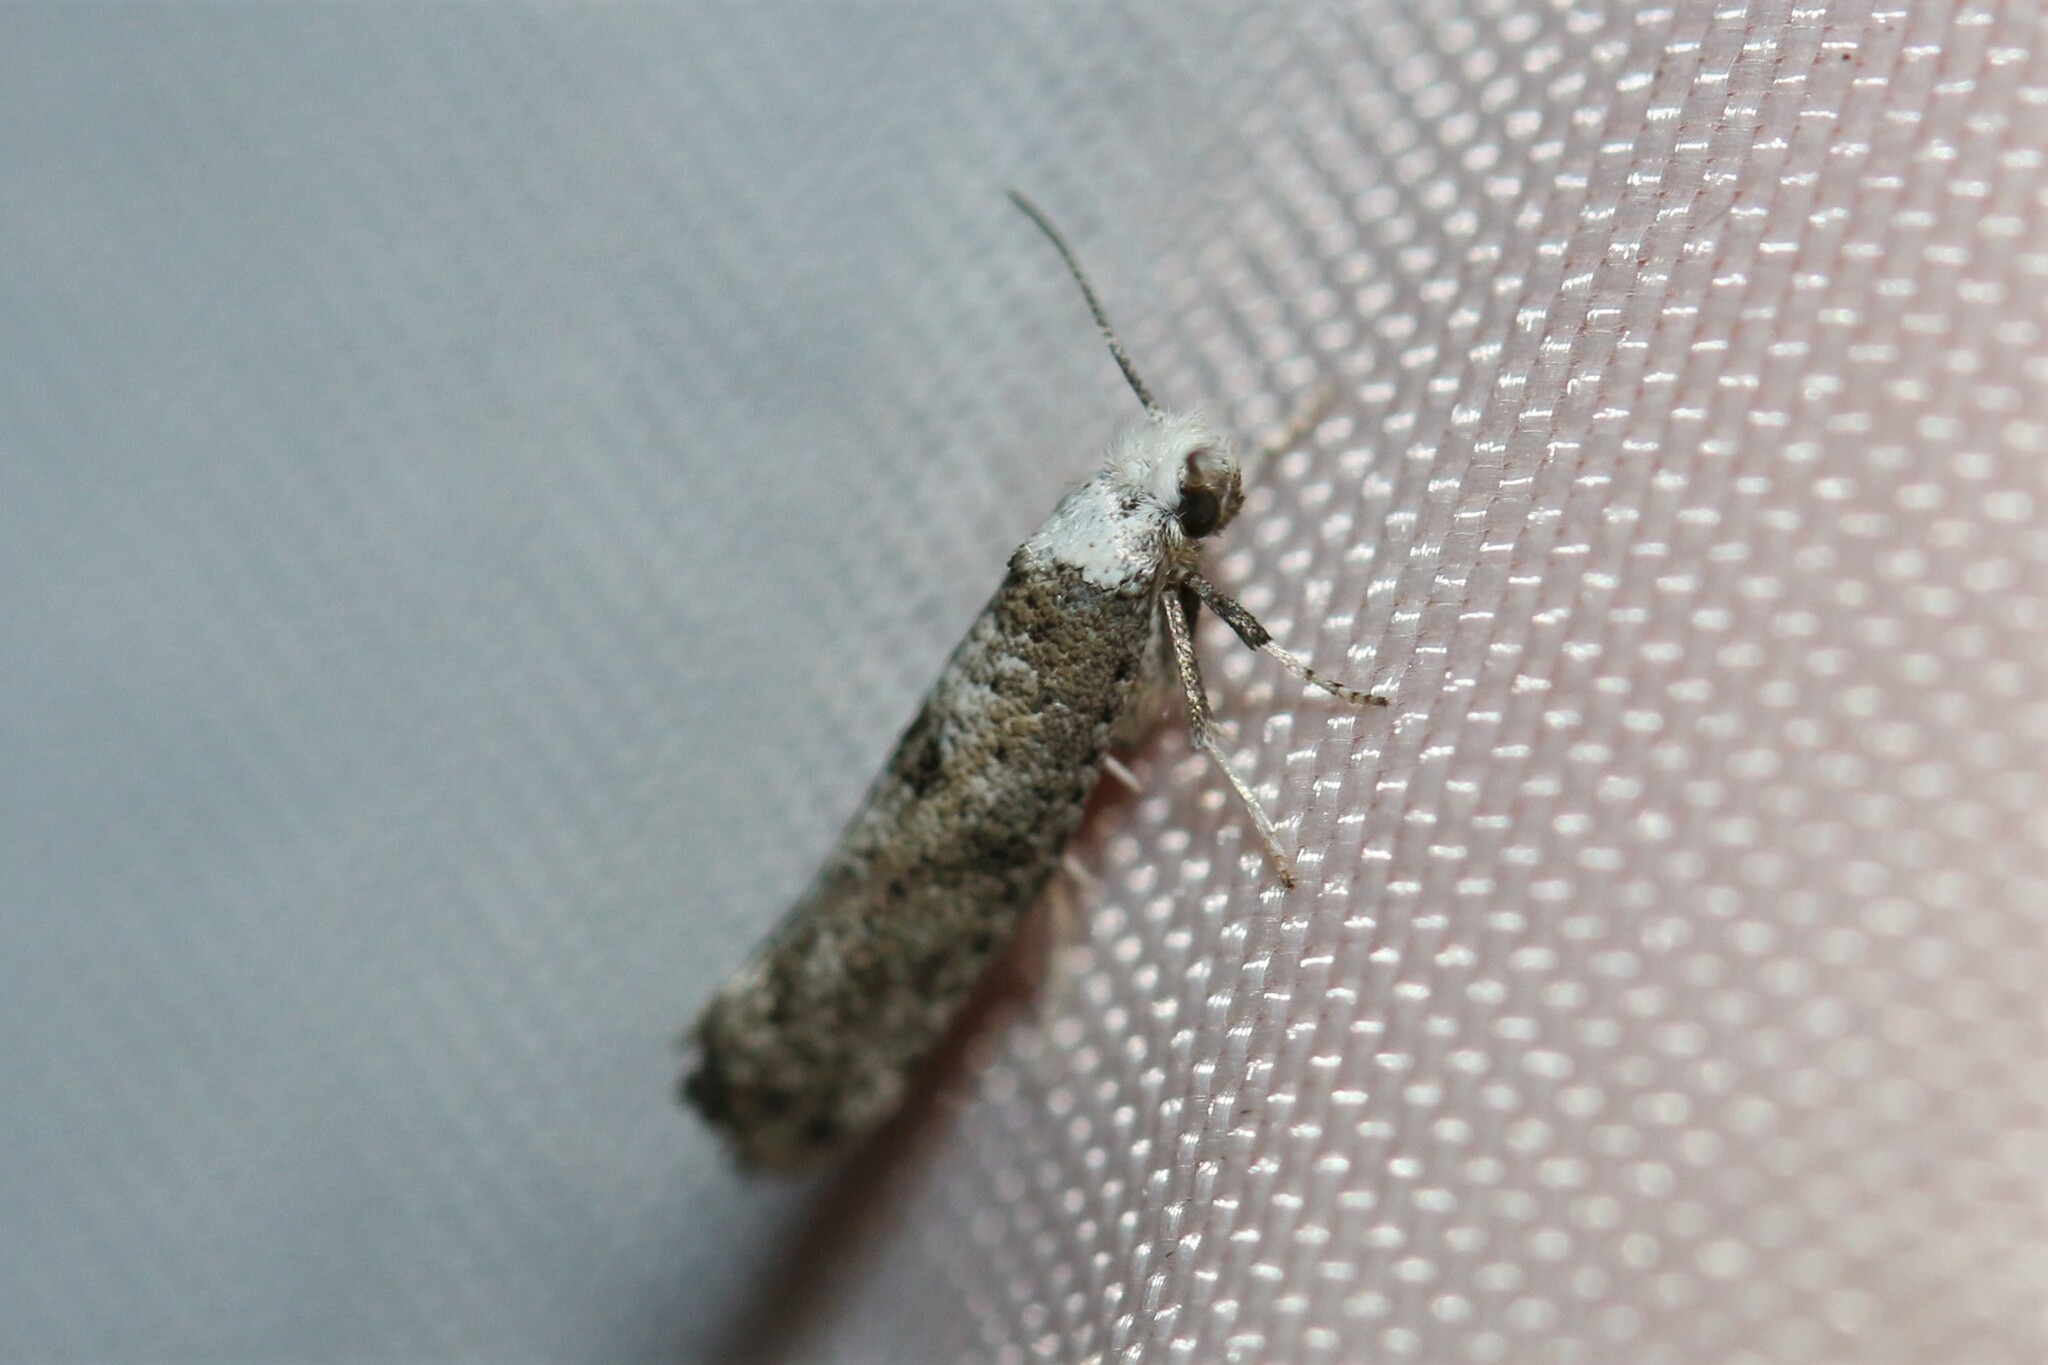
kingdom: Animalia
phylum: Arthropoda
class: Insecta
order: Lepidoptera
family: Yponomeutidae
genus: Paraswammerdamia
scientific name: Paraswammerdamia albicapitella
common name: White-headed ermel
